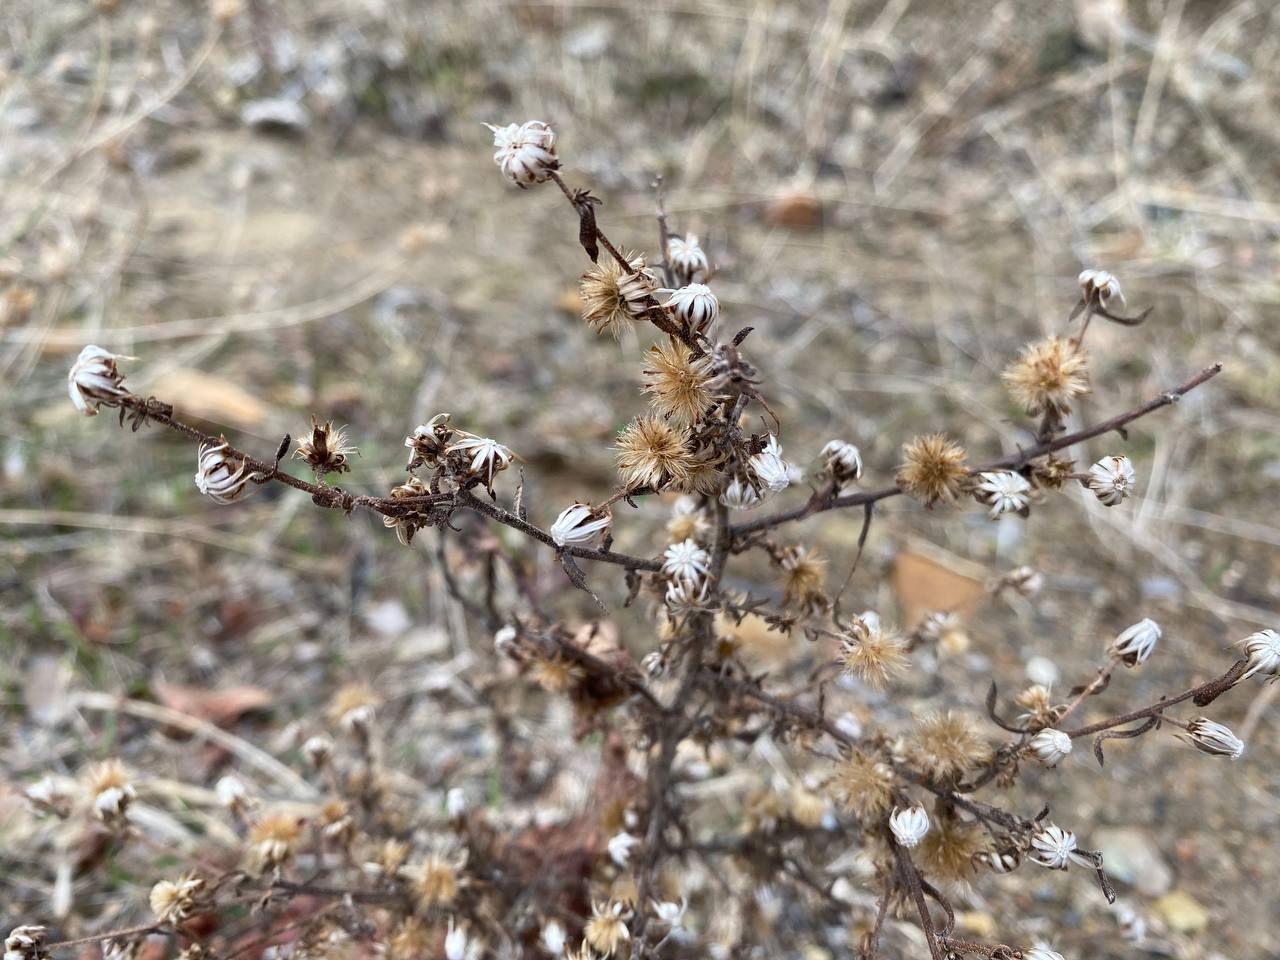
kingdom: Plantae
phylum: Tracheophyta
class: Magnoliopsida
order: Asterales
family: Asteraceae
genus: Dittrichia
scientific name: Dittrichia graveolens
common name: Stinking fleabane
